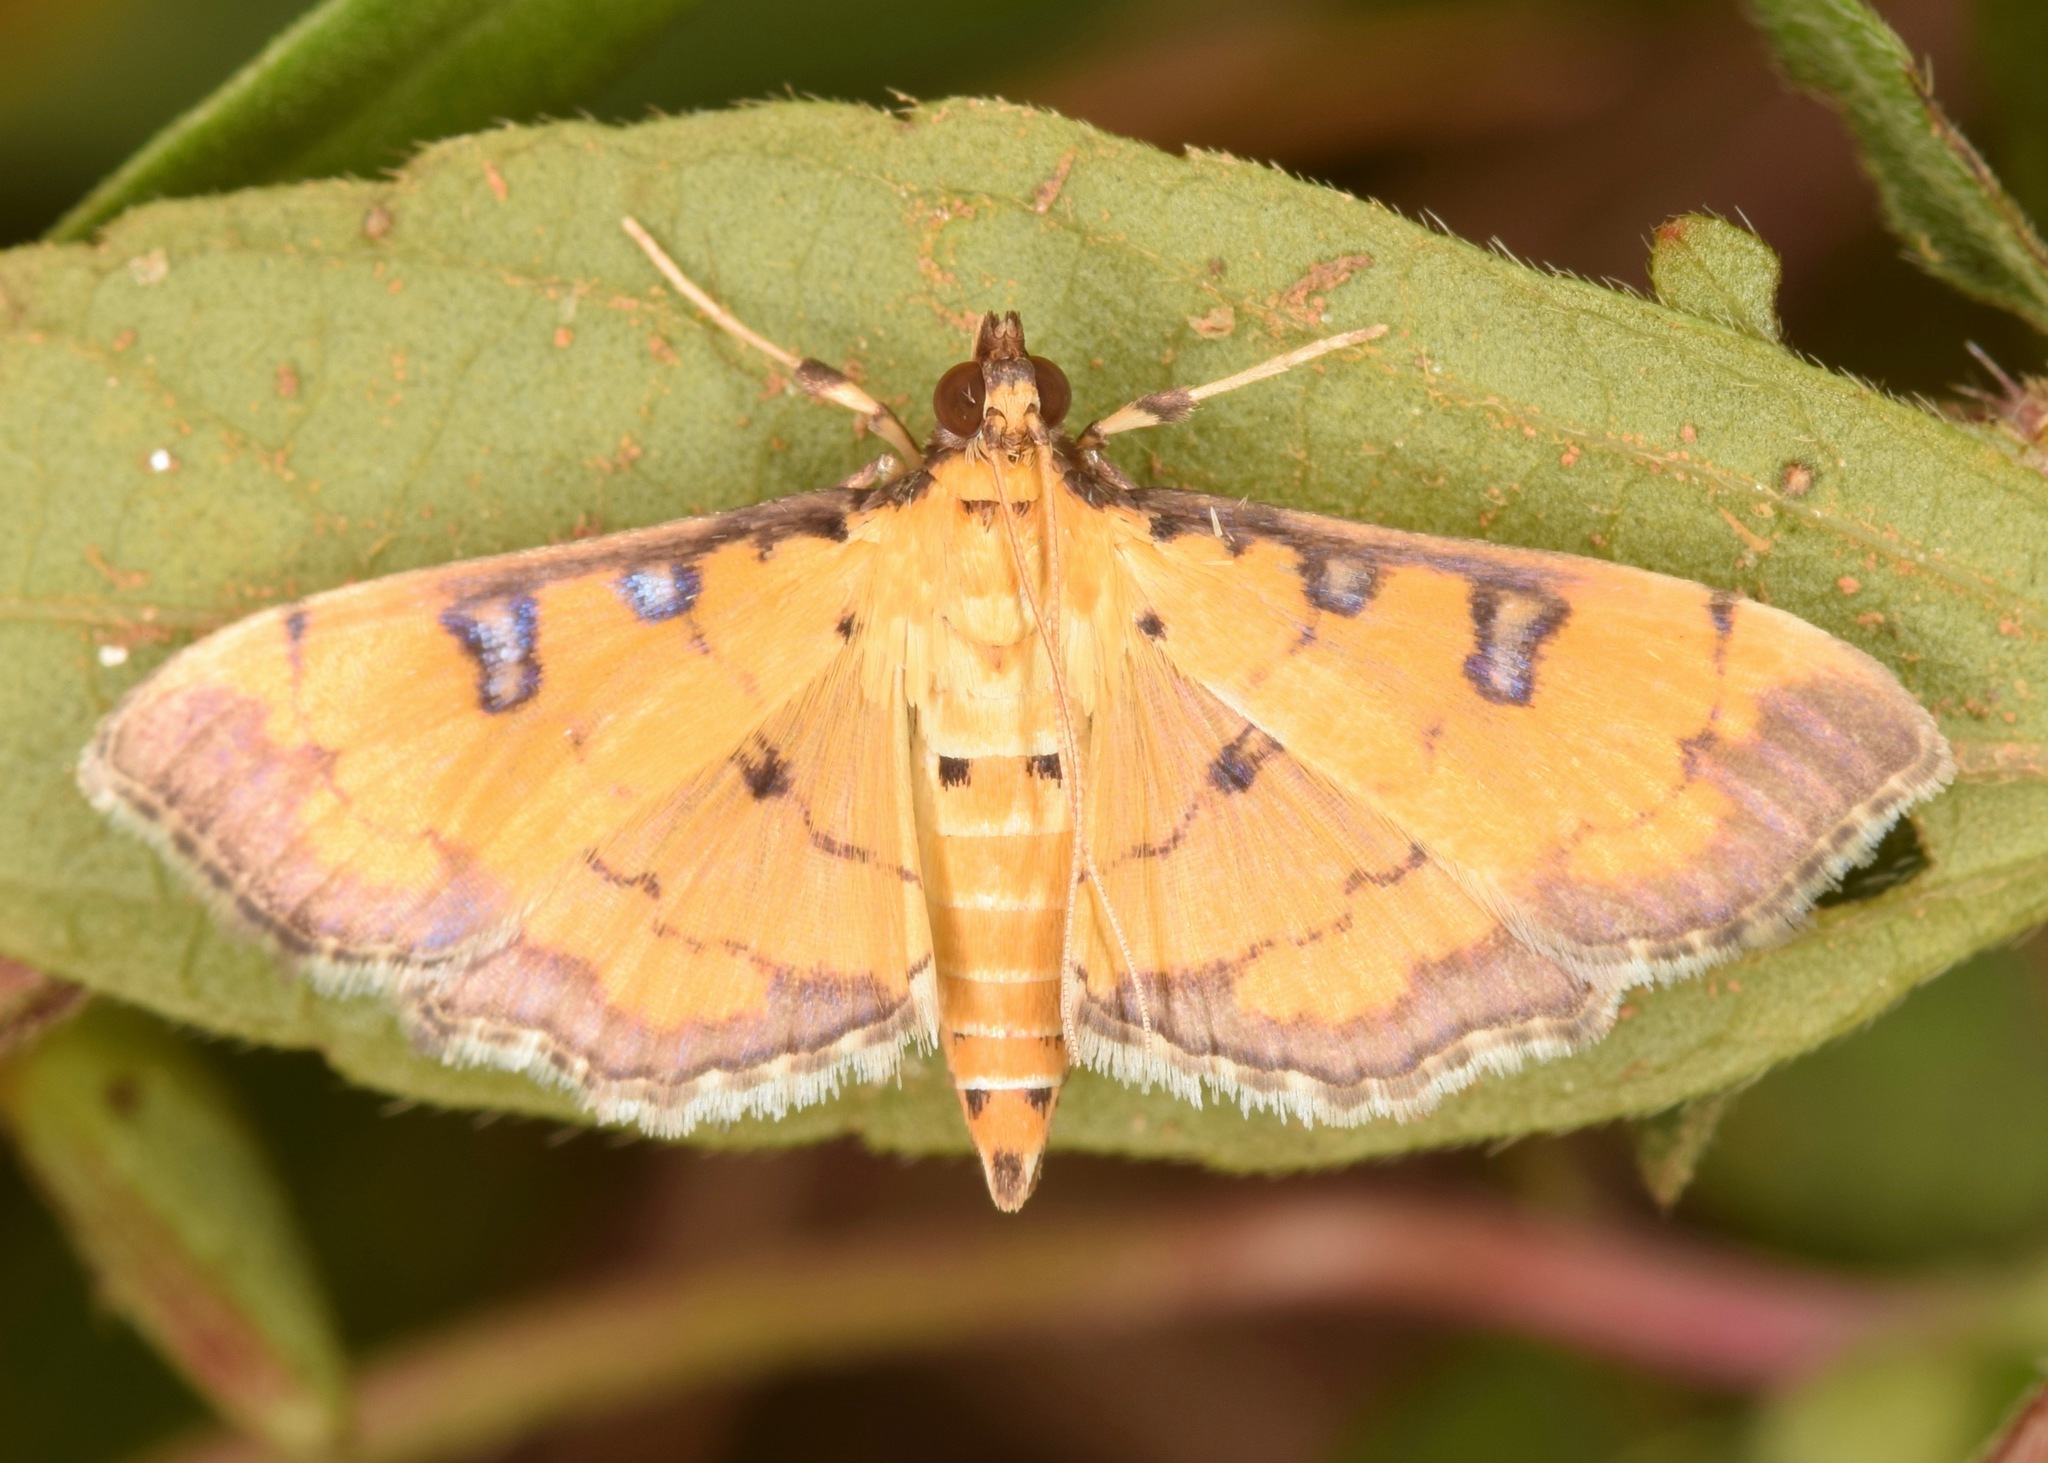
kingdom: Animalia
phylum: Arthropoda
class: Insecta
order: Lepidoptera
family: Crambidae
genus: Ategumia
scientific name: Ategumia ebulealis
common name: Moth
